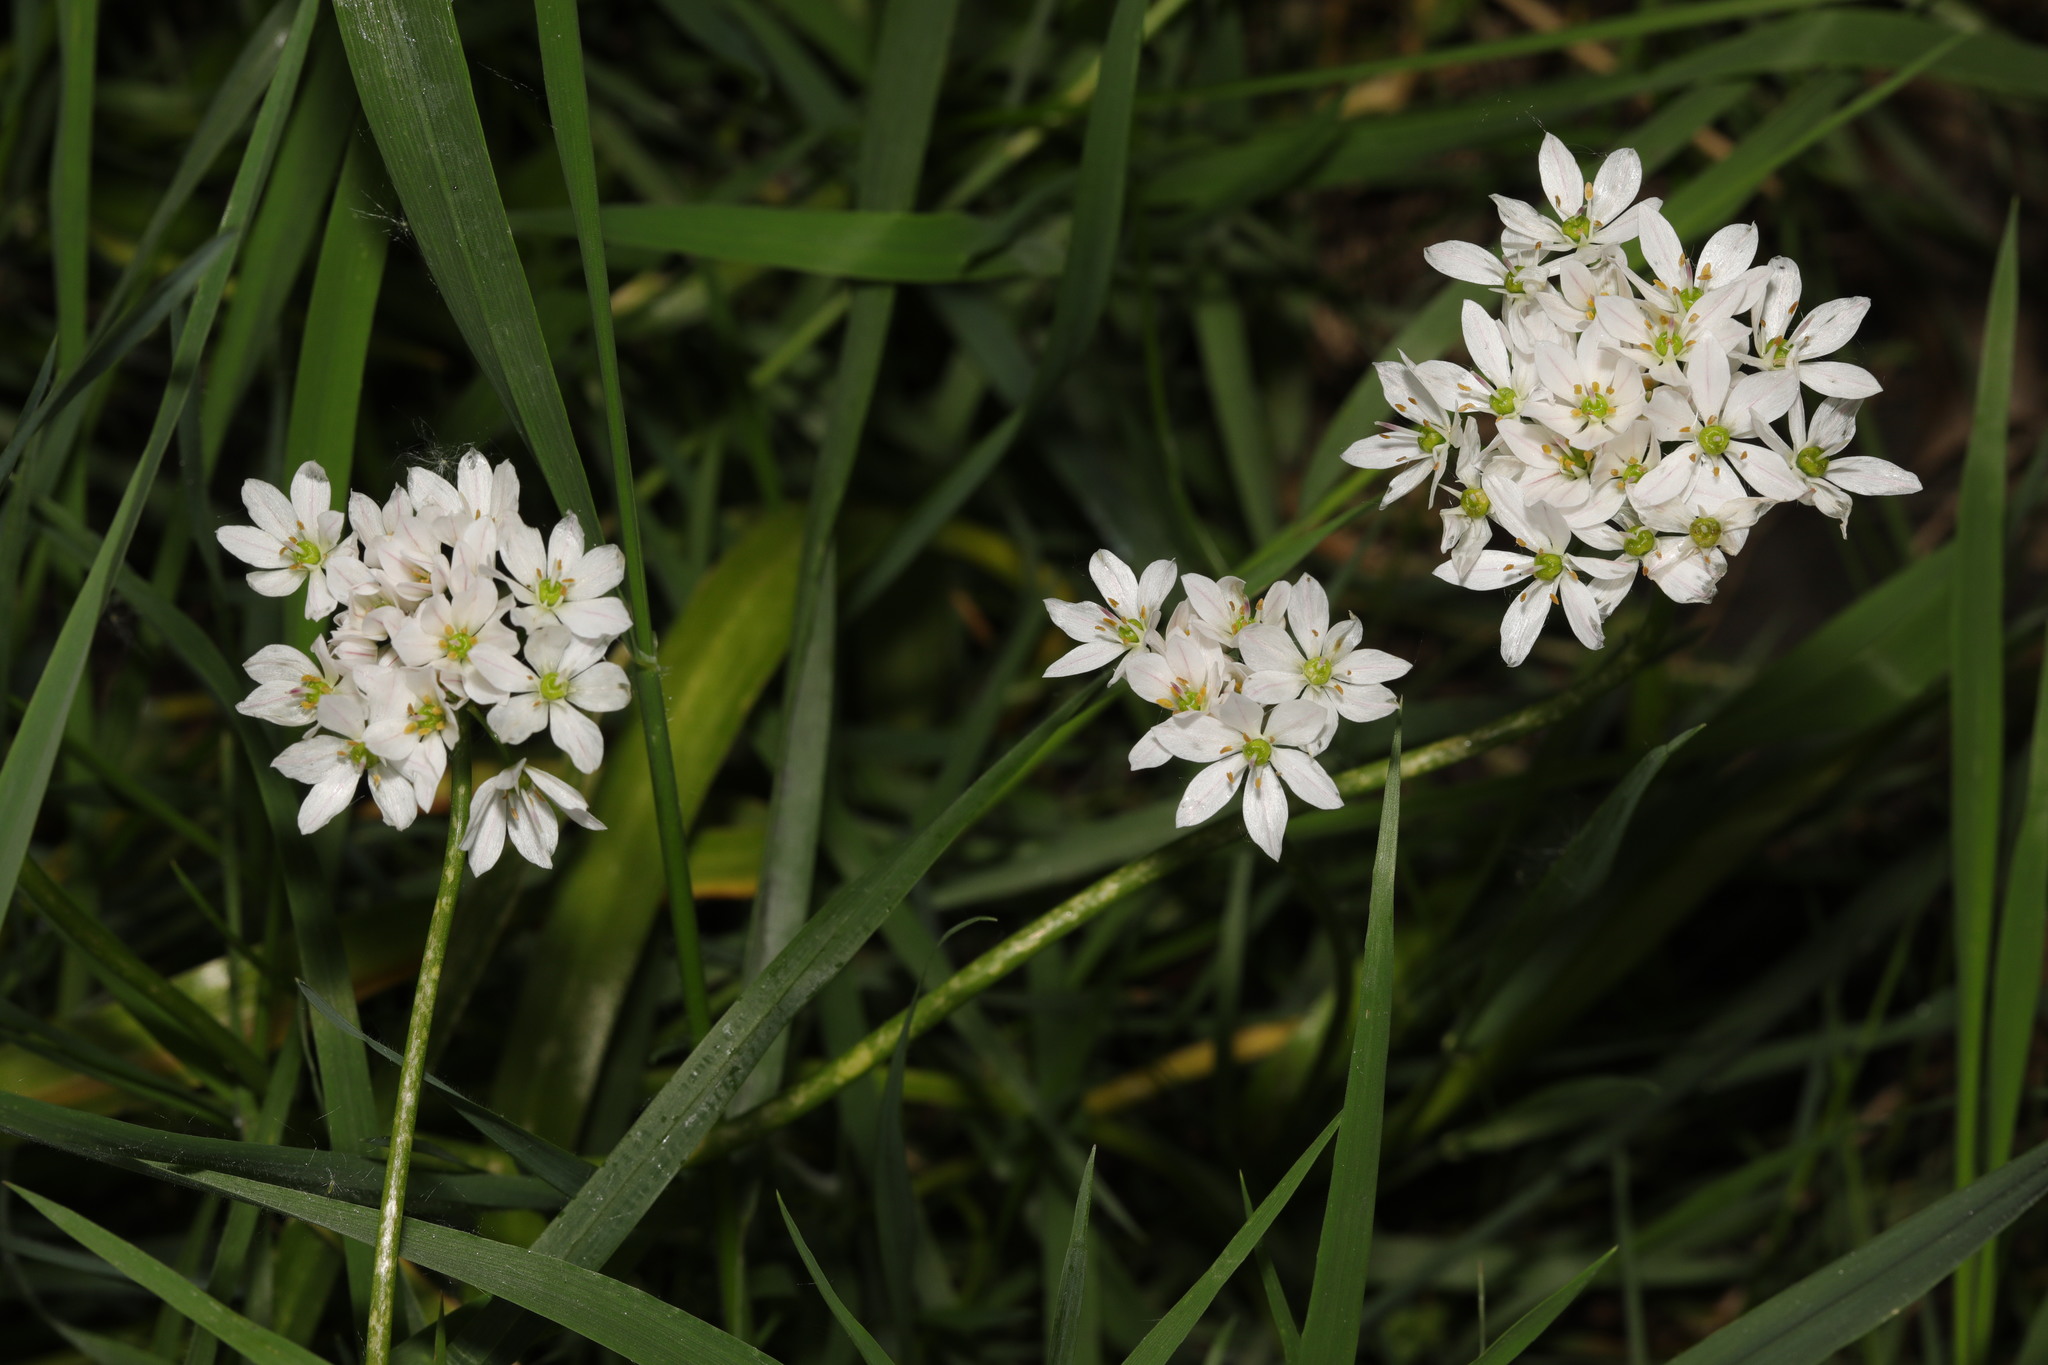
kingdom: Plantae
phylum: Tracheophyta
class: Liliopsida
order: Asparagales
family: Amaryllidaceae
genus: Allium
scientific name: Allium trifoliatum
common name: Pink garlic
